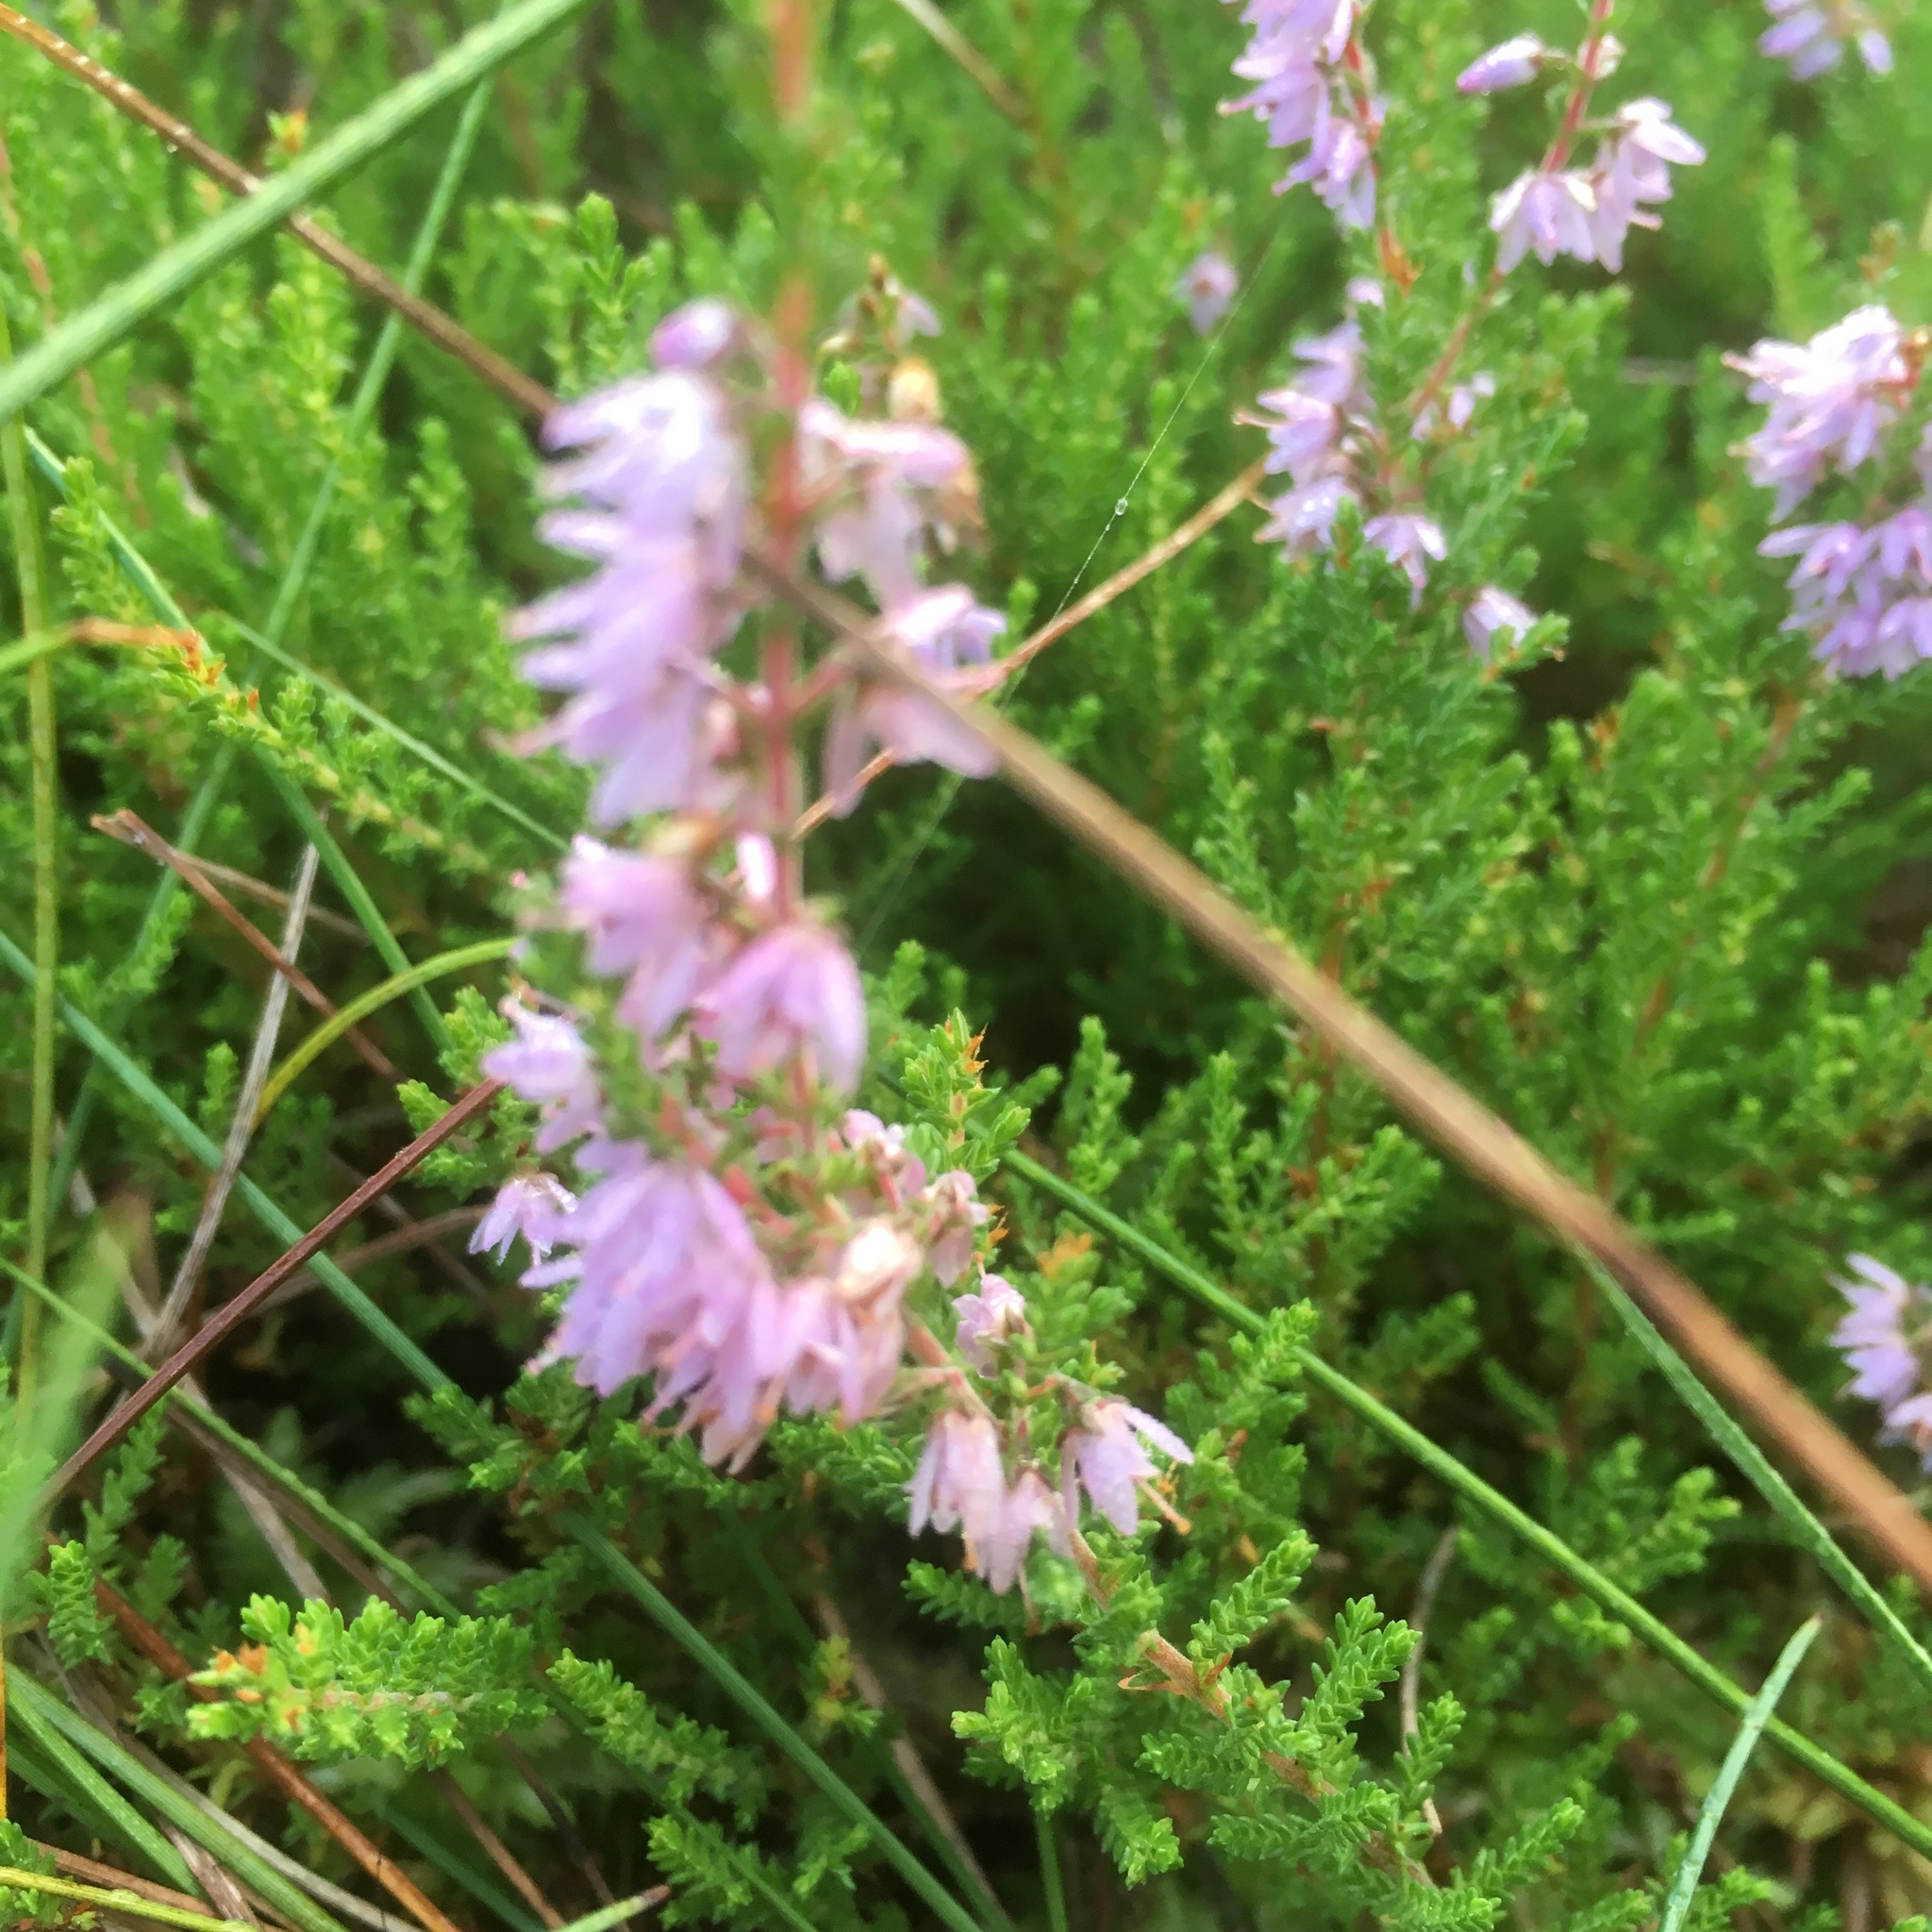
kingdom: Plantae
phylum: Tracheophyta
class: Magnoliopsida
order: Ericales
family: Ericaceae
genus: Calluna
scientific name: Calluna vulgaris
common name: Heather
